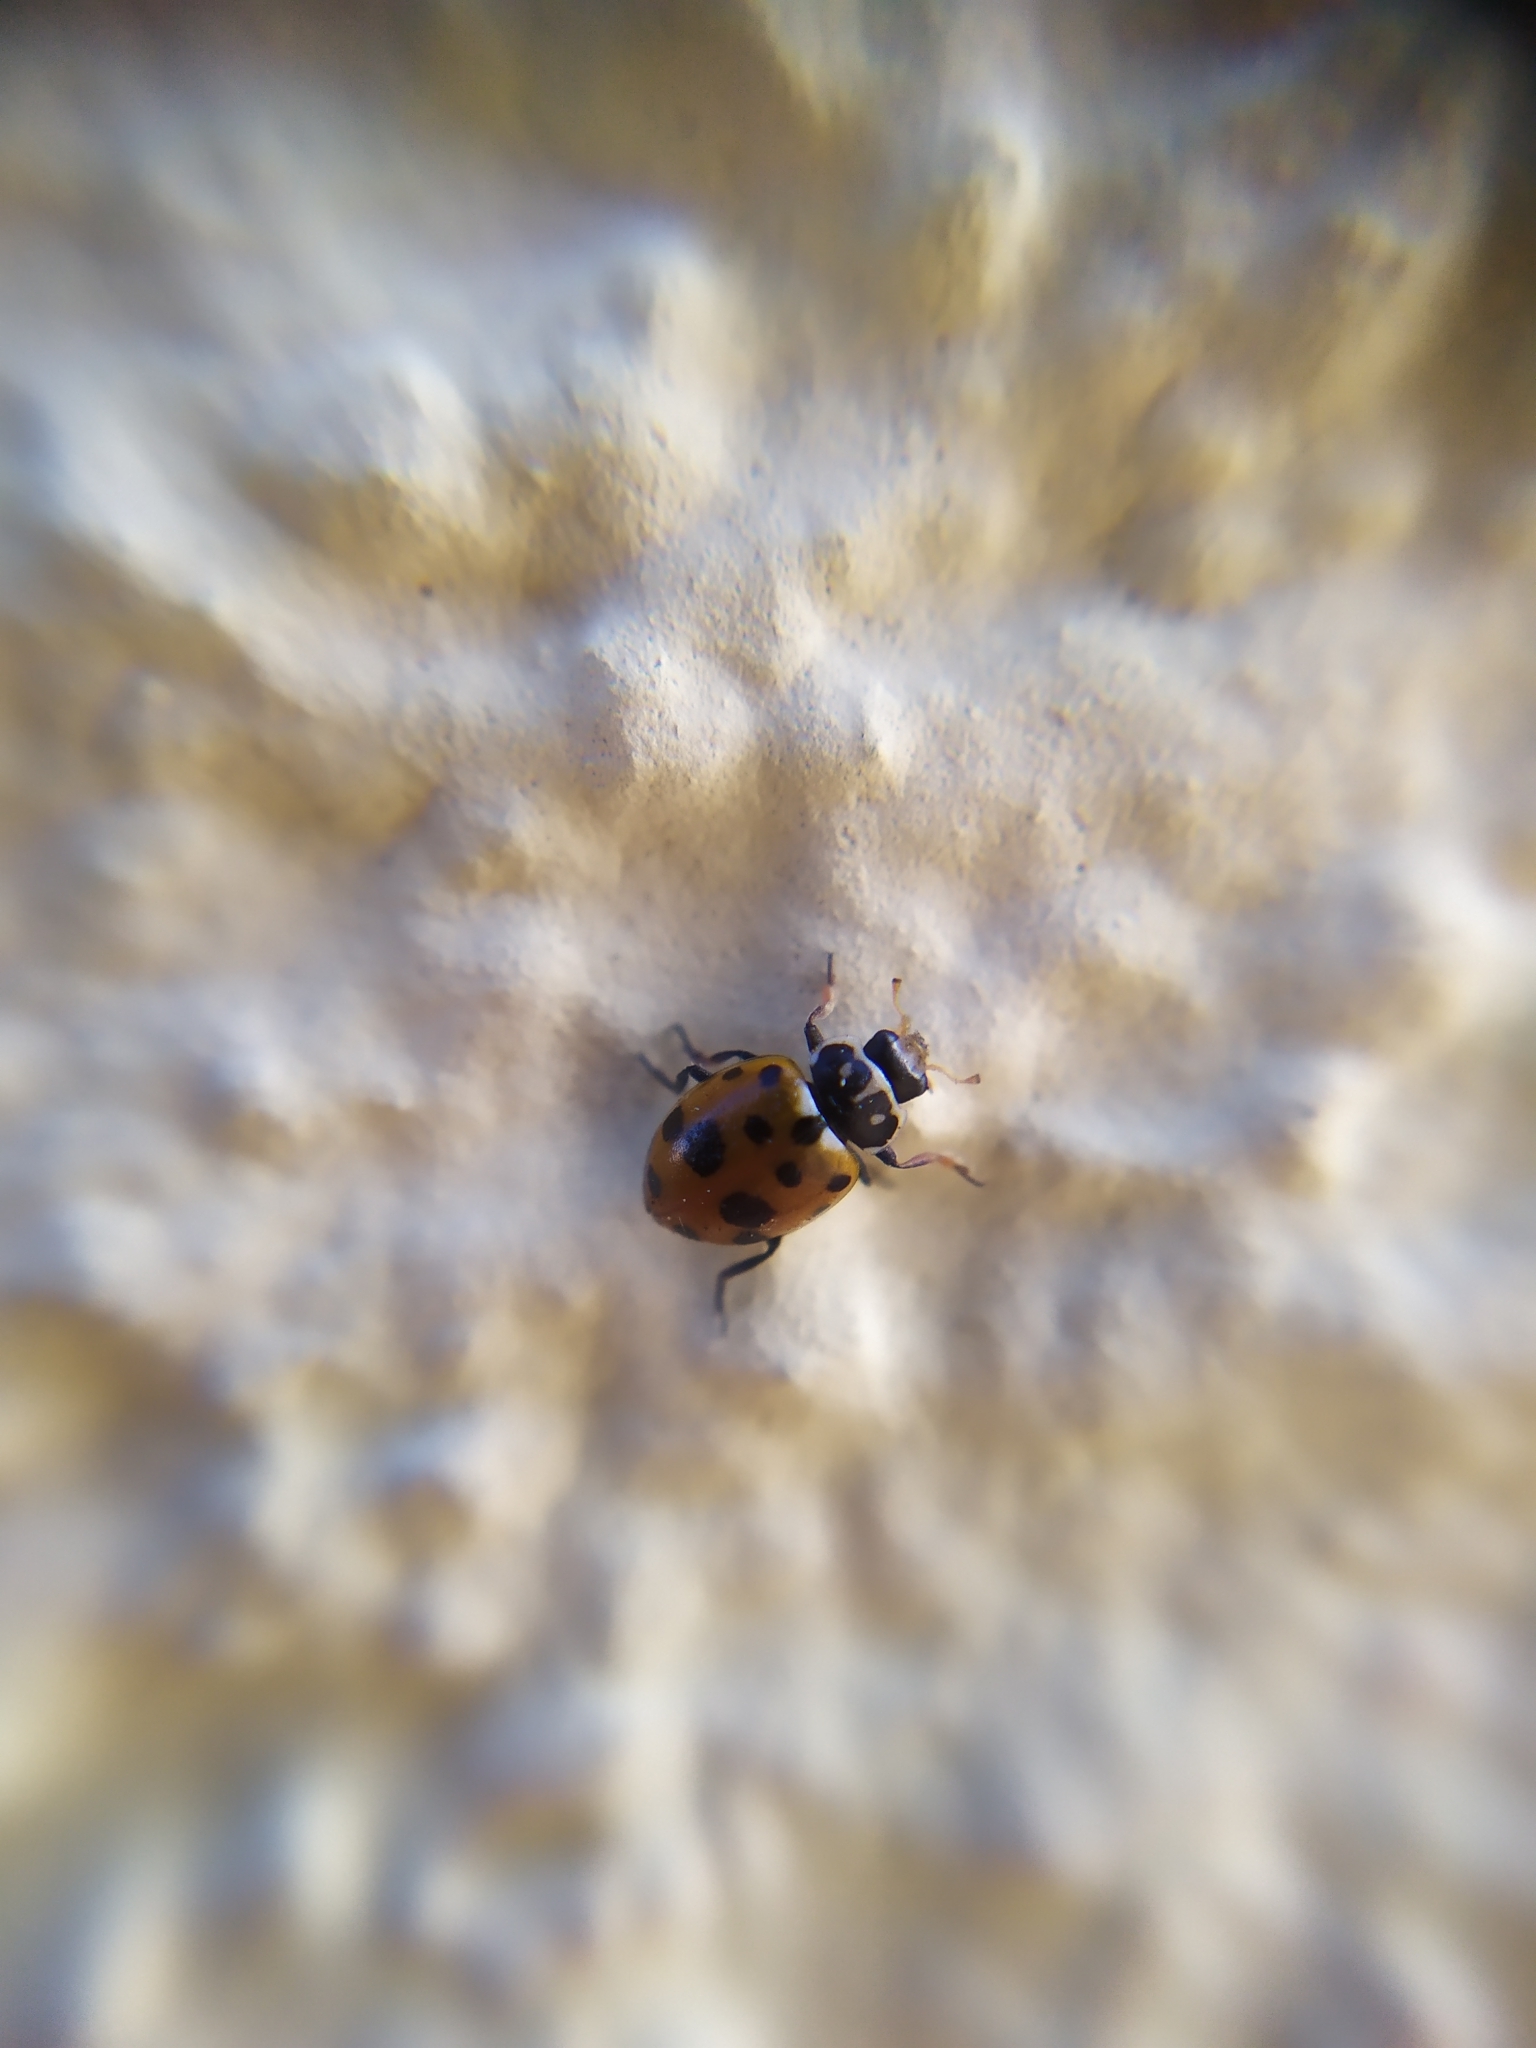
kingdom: Animalia
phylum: Arthropoda
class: Insecta
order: Coleoptera
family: Coccinellidae
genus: Hippodamia
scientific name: Hippodamia variegata
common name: Ladybird beetle
